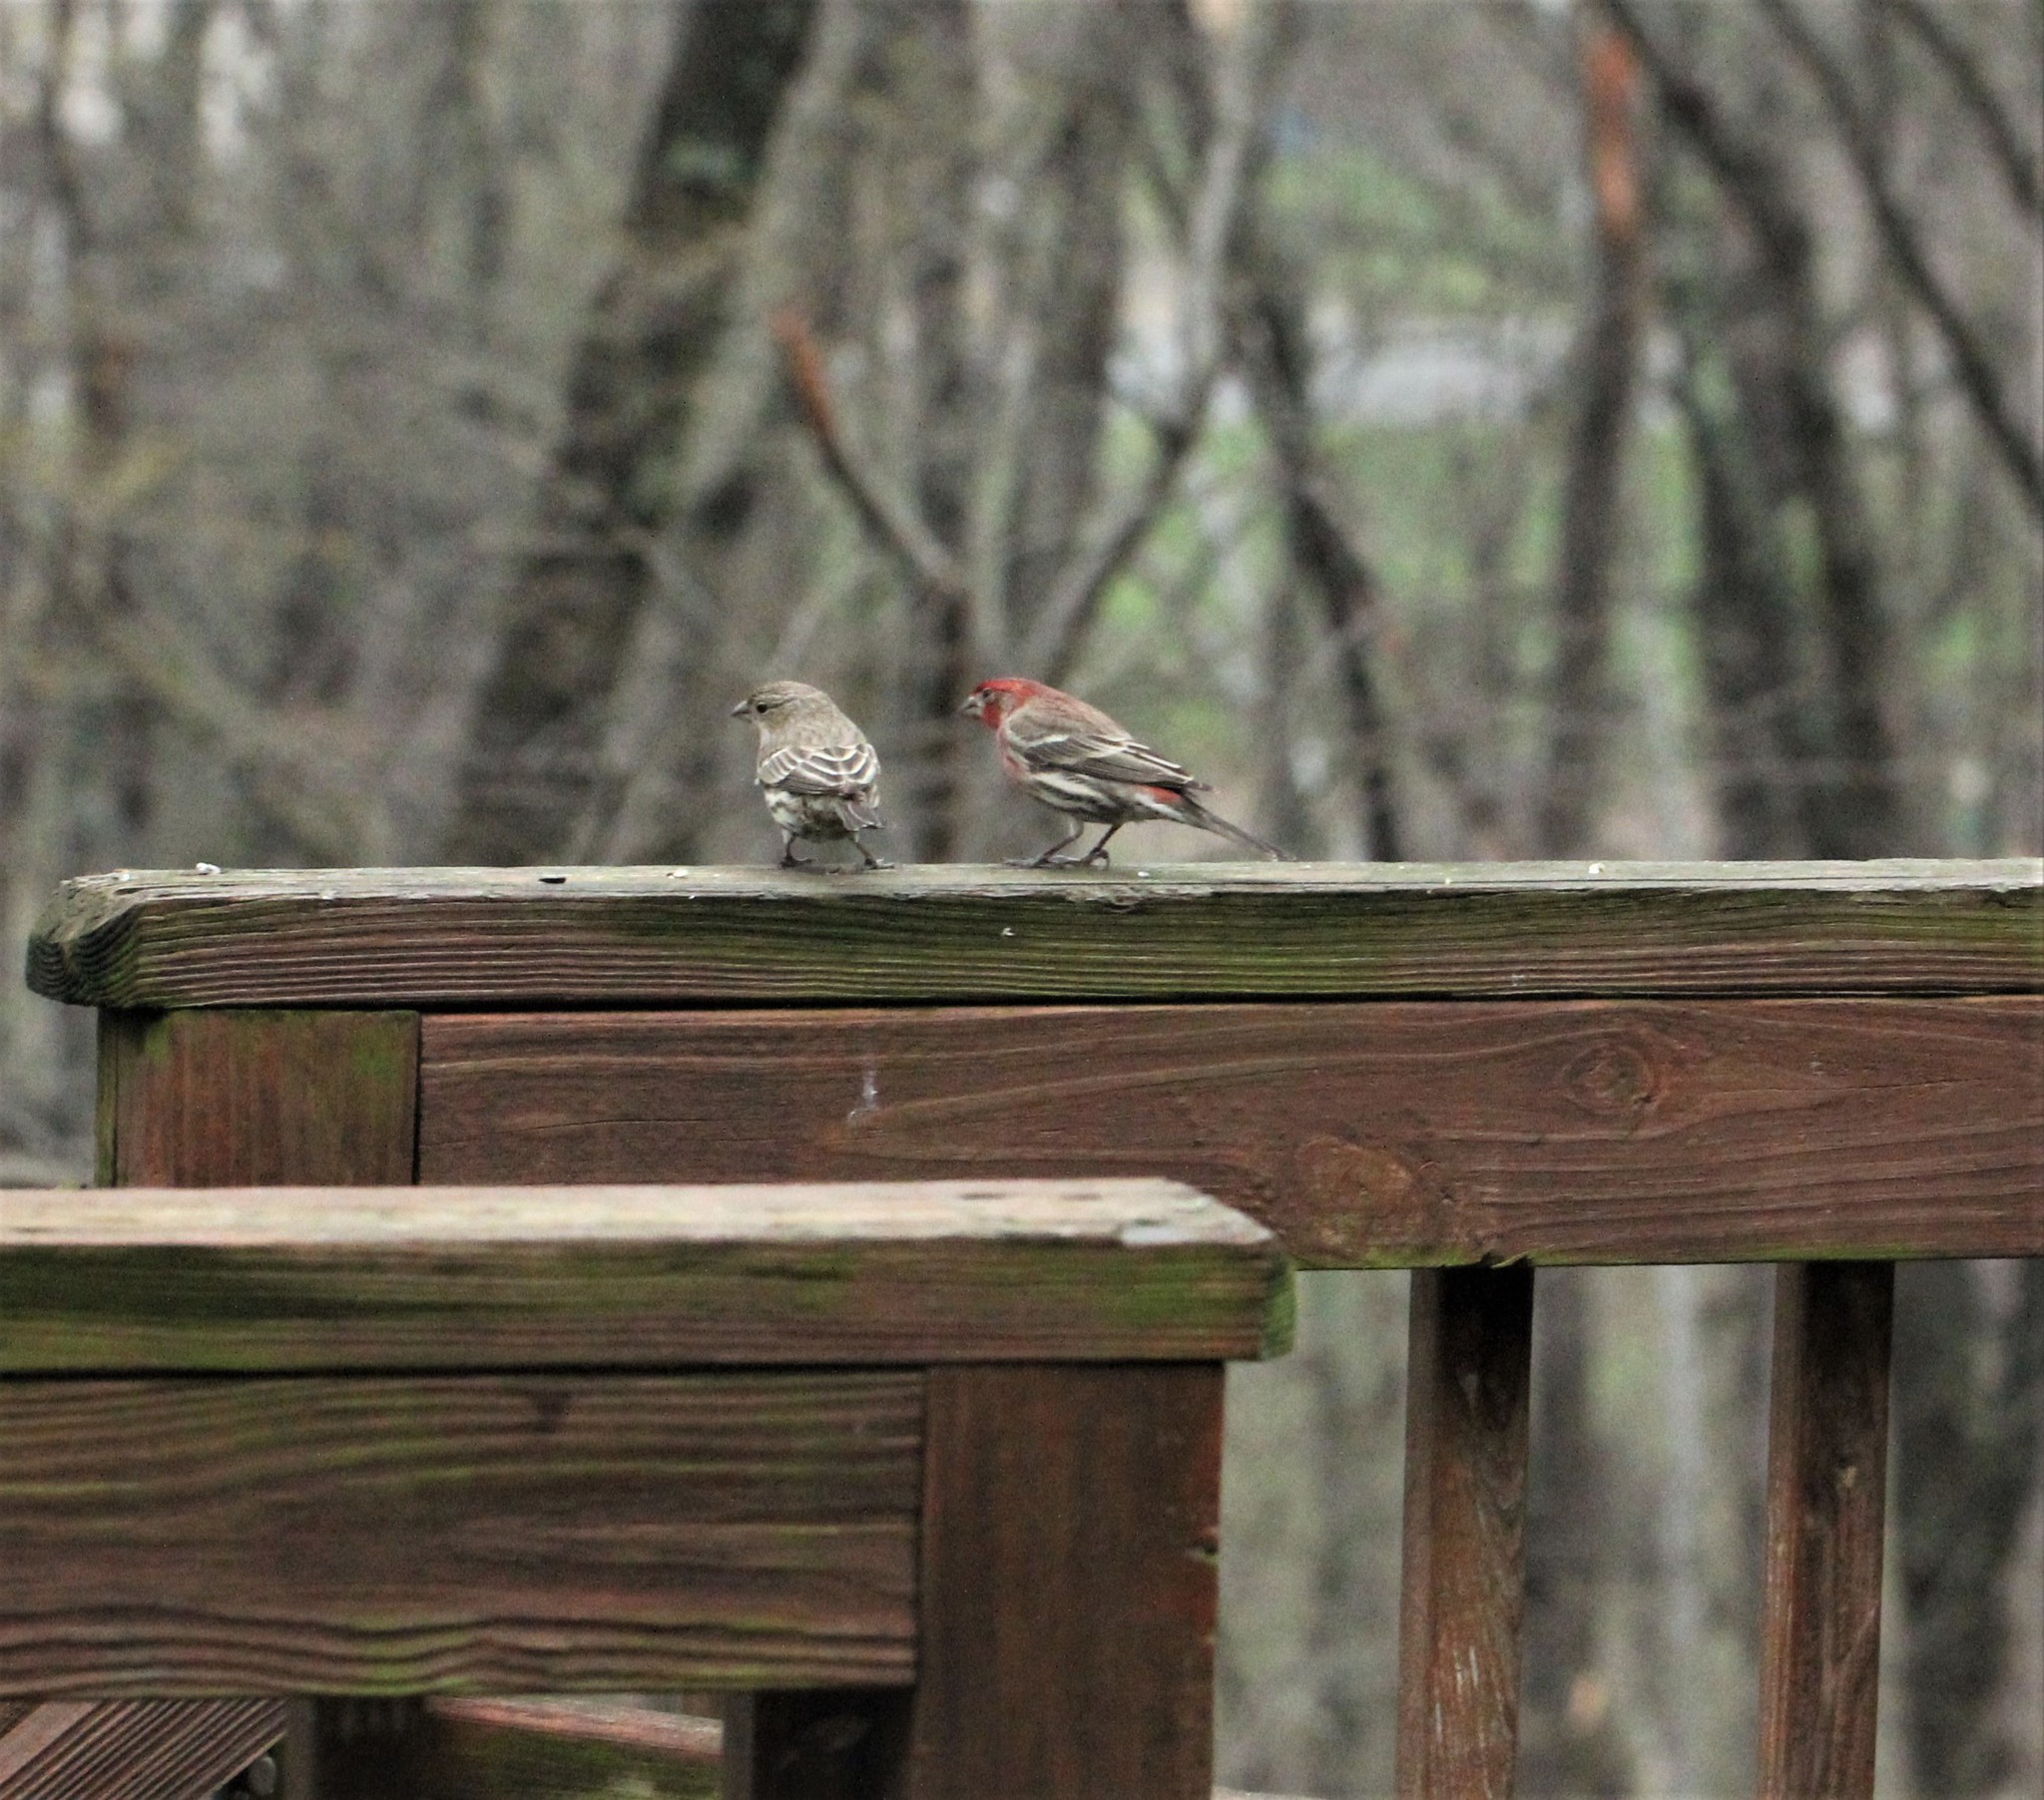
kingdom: Animalia
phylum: Chordata
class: Aves
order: Passeriformes
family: Fringillidae
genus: Haemorhous
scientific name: Haemorhous mexicanus
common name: House finch
